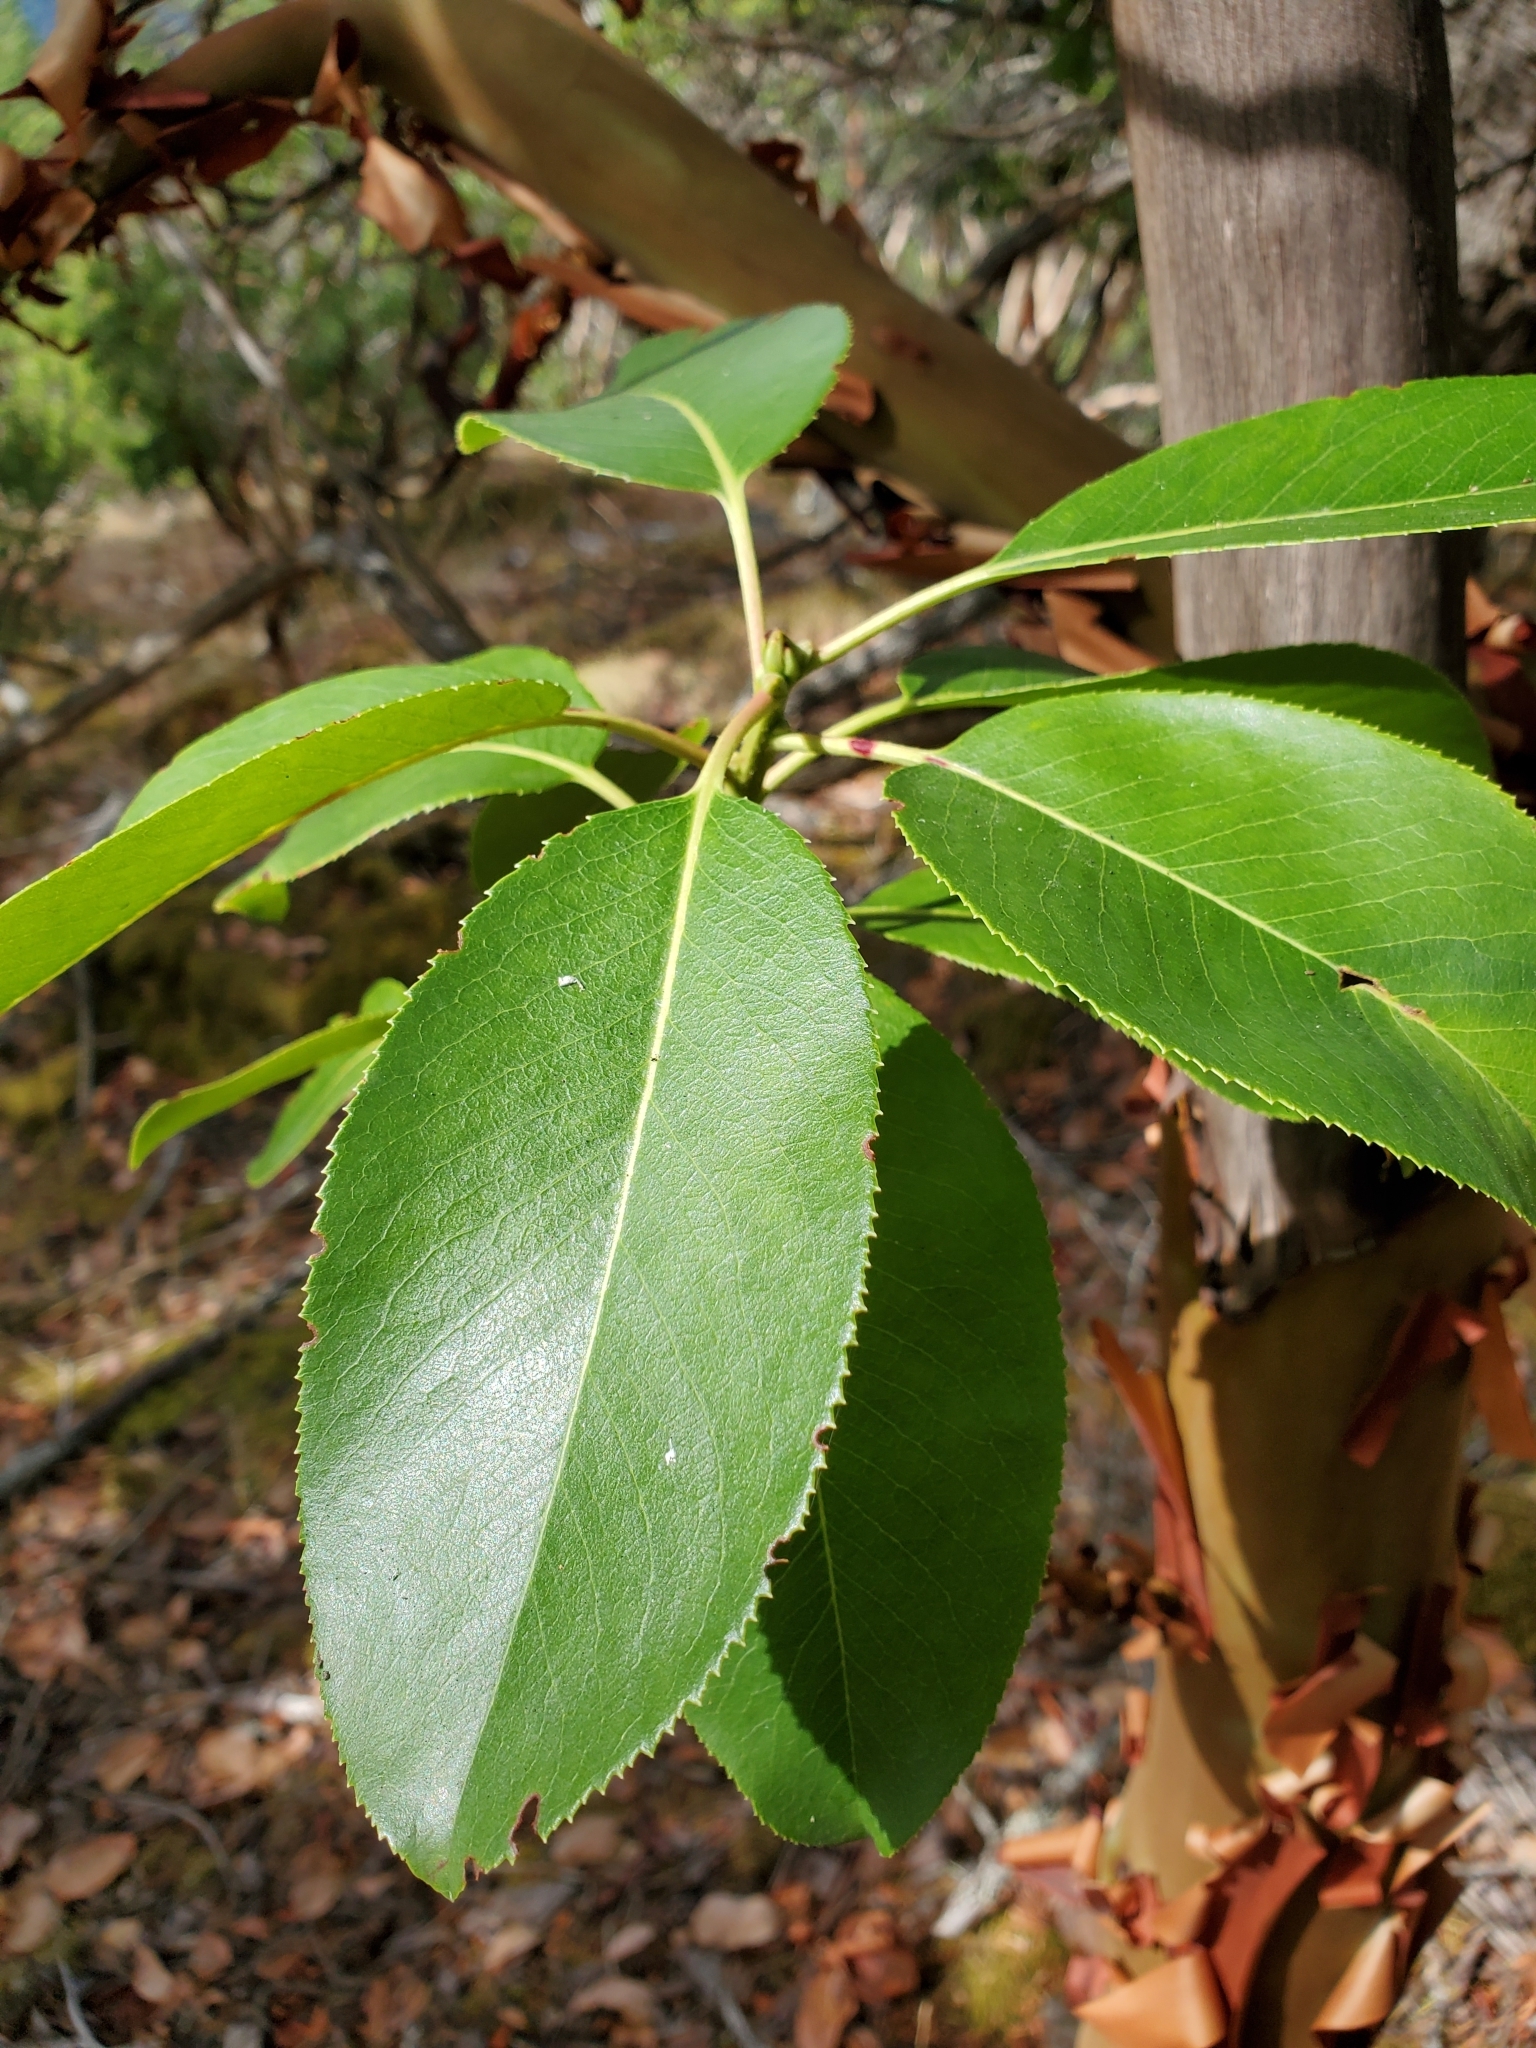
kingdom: Plantae
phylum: Tracheophyta
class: Magnoliopsida
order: Ericales
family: Ericaceae
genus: Arbutus
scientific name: Arbutus menziesii
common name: Pacific madrone
